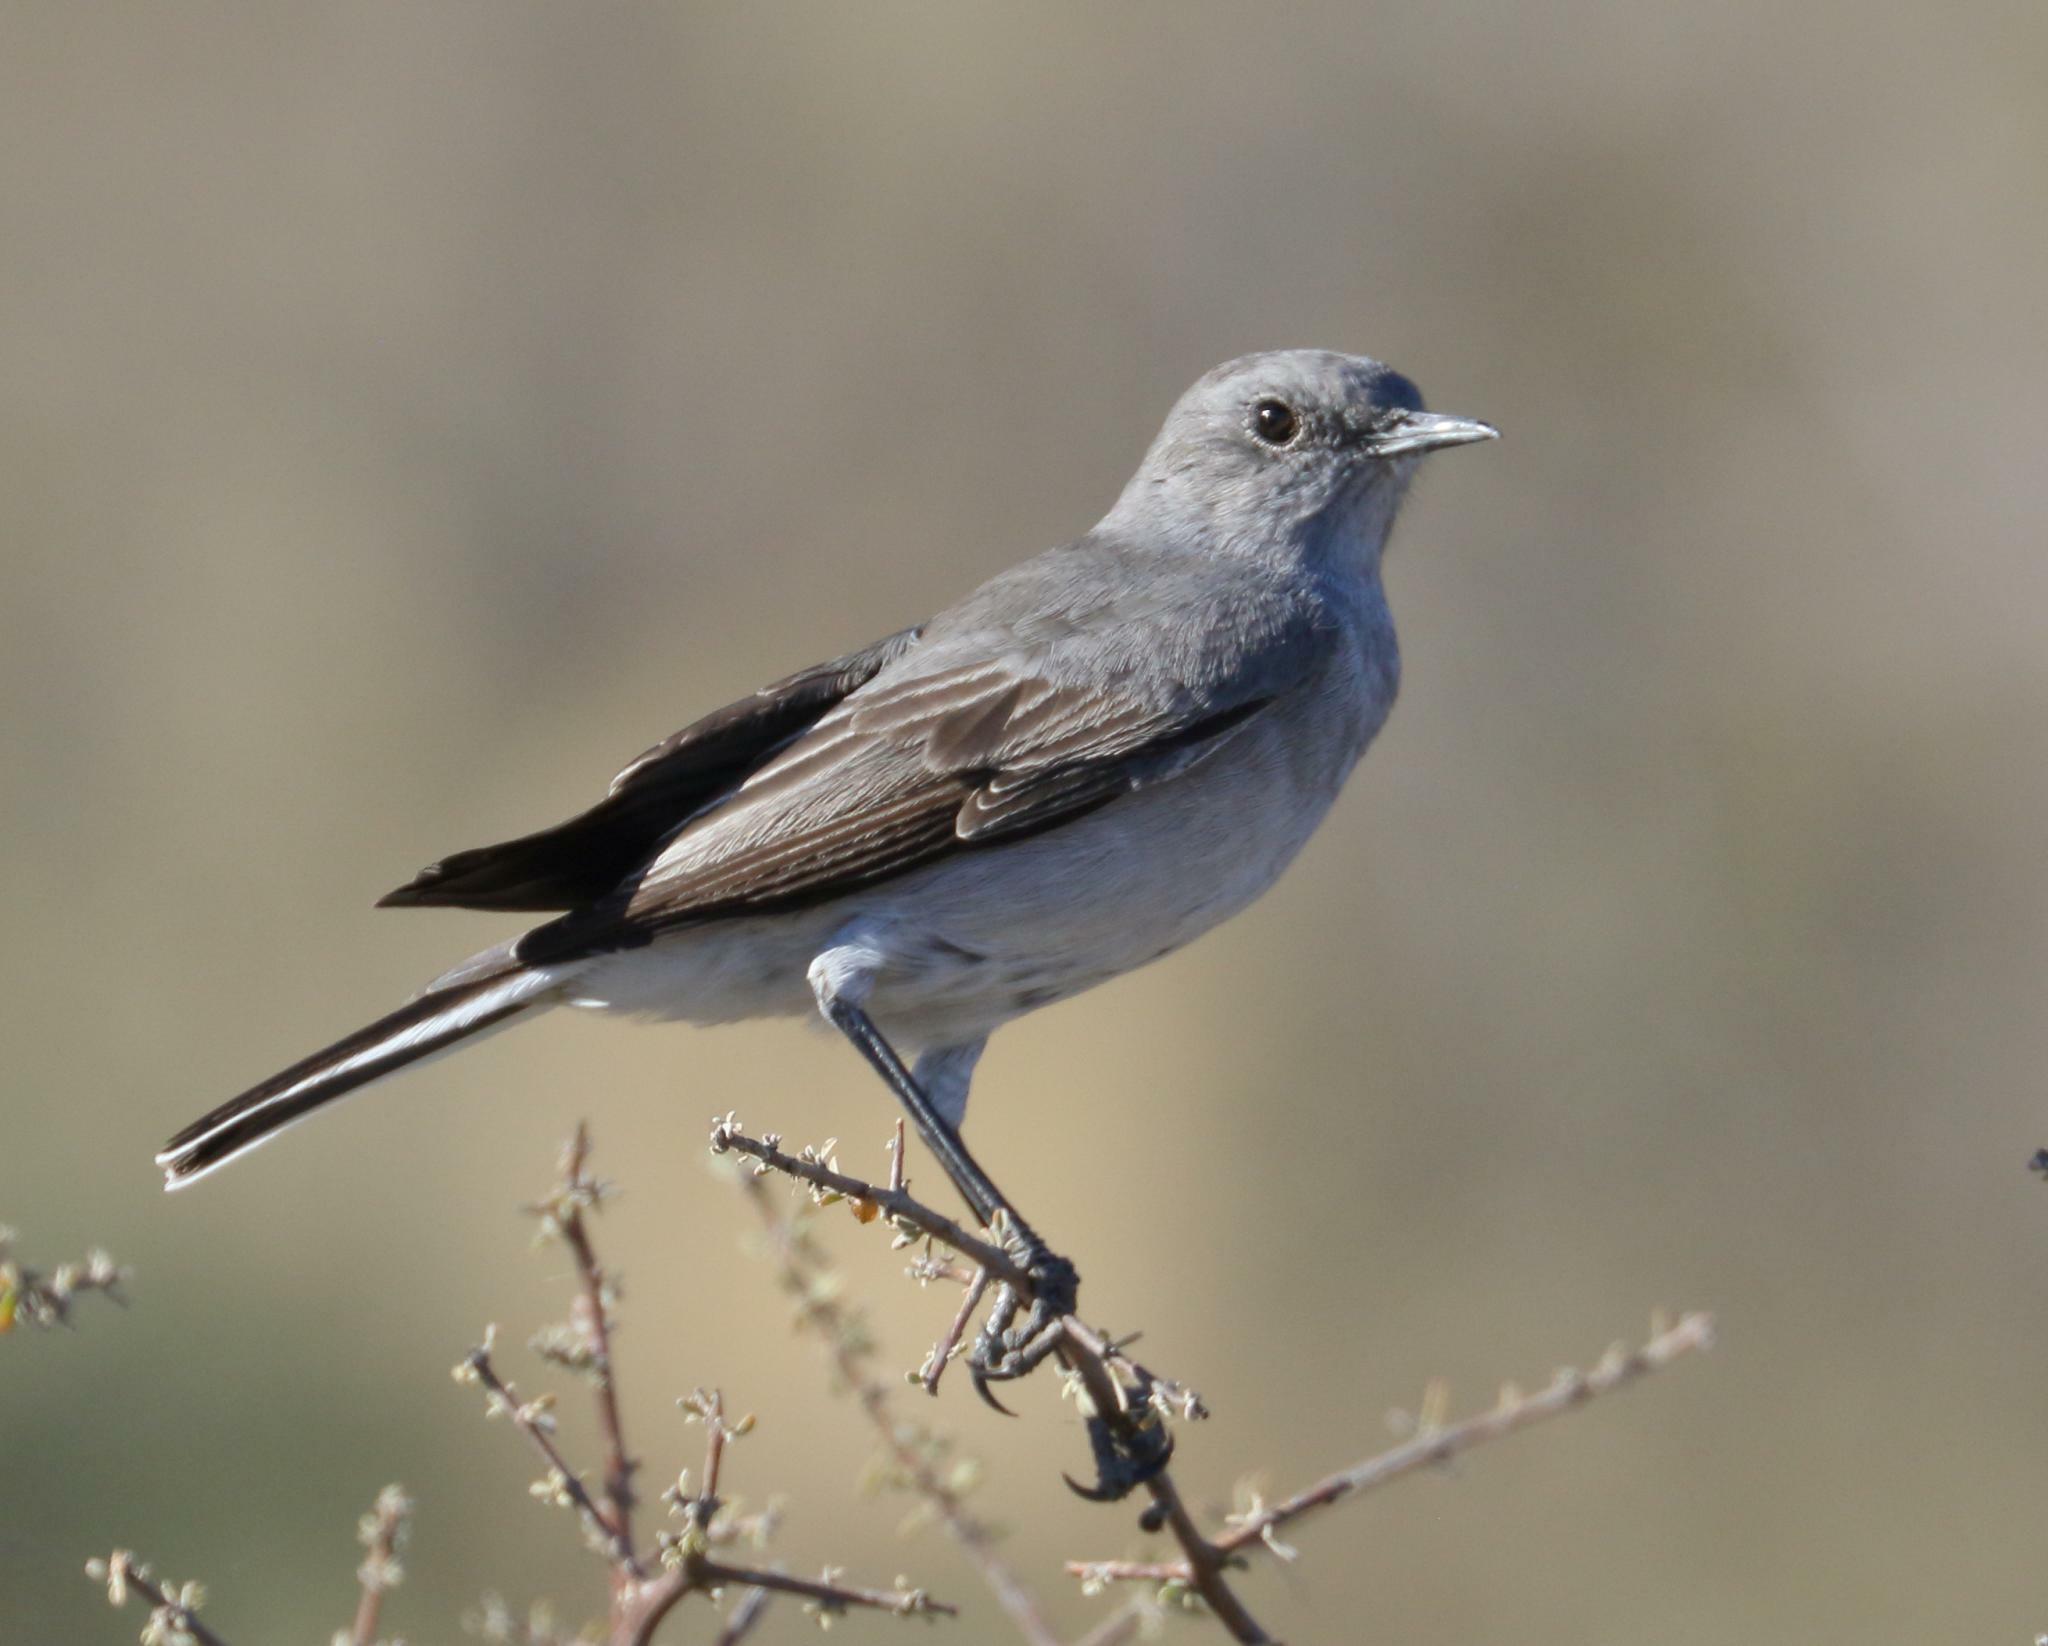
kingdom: Animalia
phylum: Chordata
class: Aves
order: Passeriformes
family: Muscicapidae
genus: Emarginata
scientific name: Emarginata schlegelii
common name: Karoo chat
